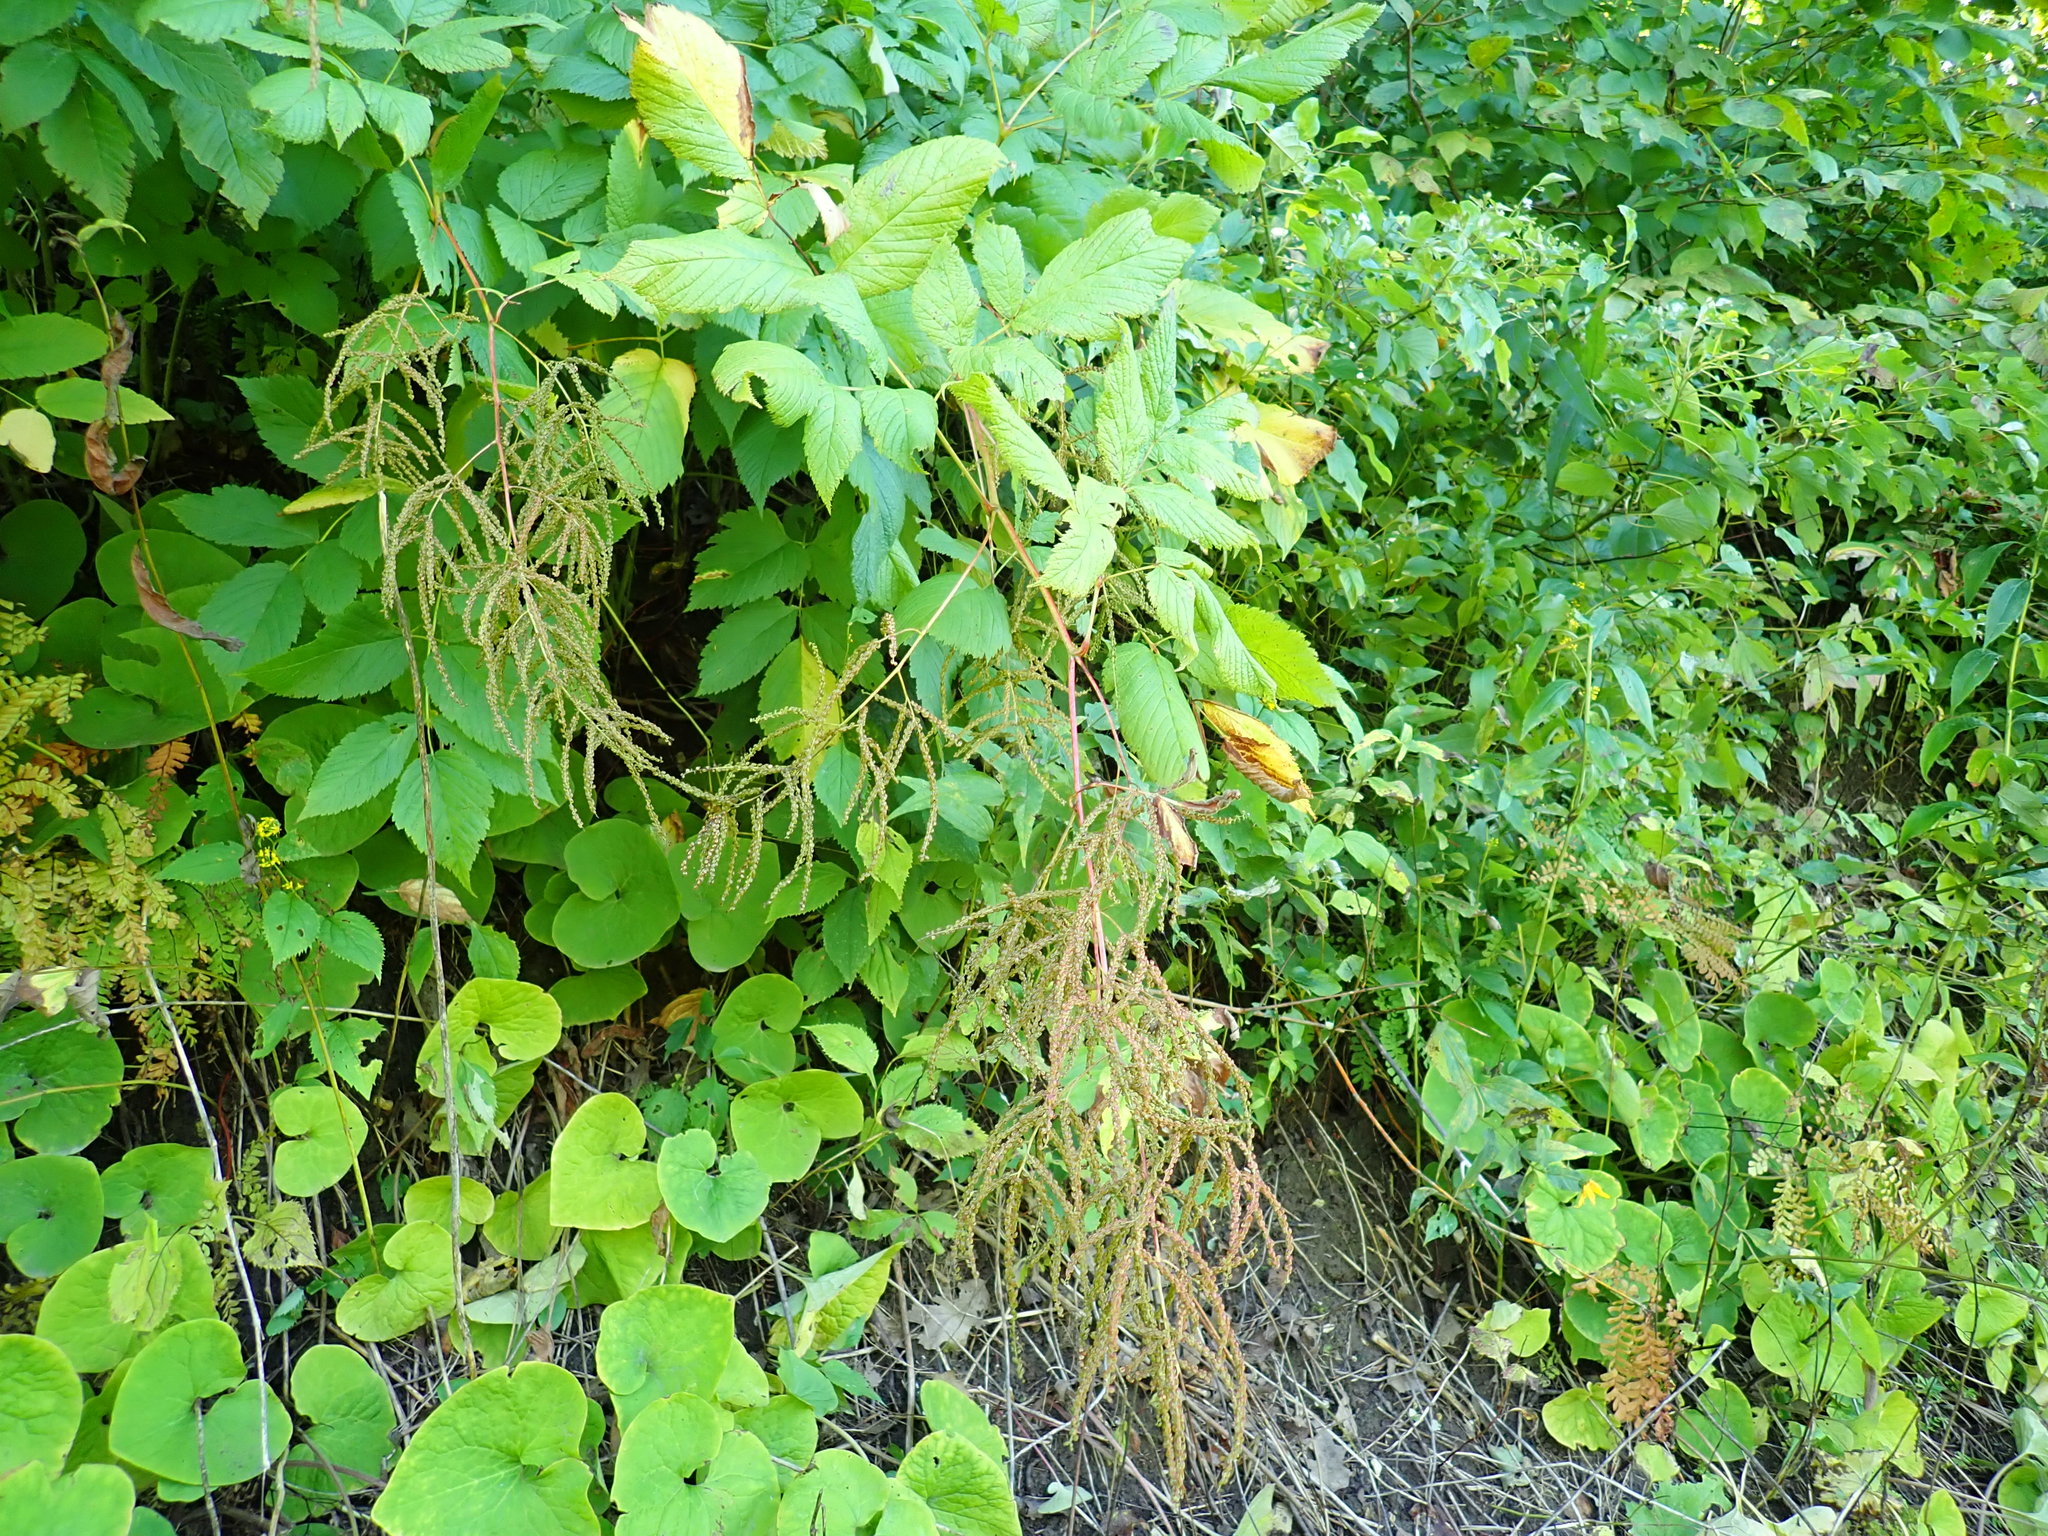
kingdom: Plantae
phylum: Tracheophyta
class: Magnoliopsida
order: Rosales
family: Rosaceae
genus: Aruncus
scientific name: Aruncus dioicus
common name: Buck's-beard
